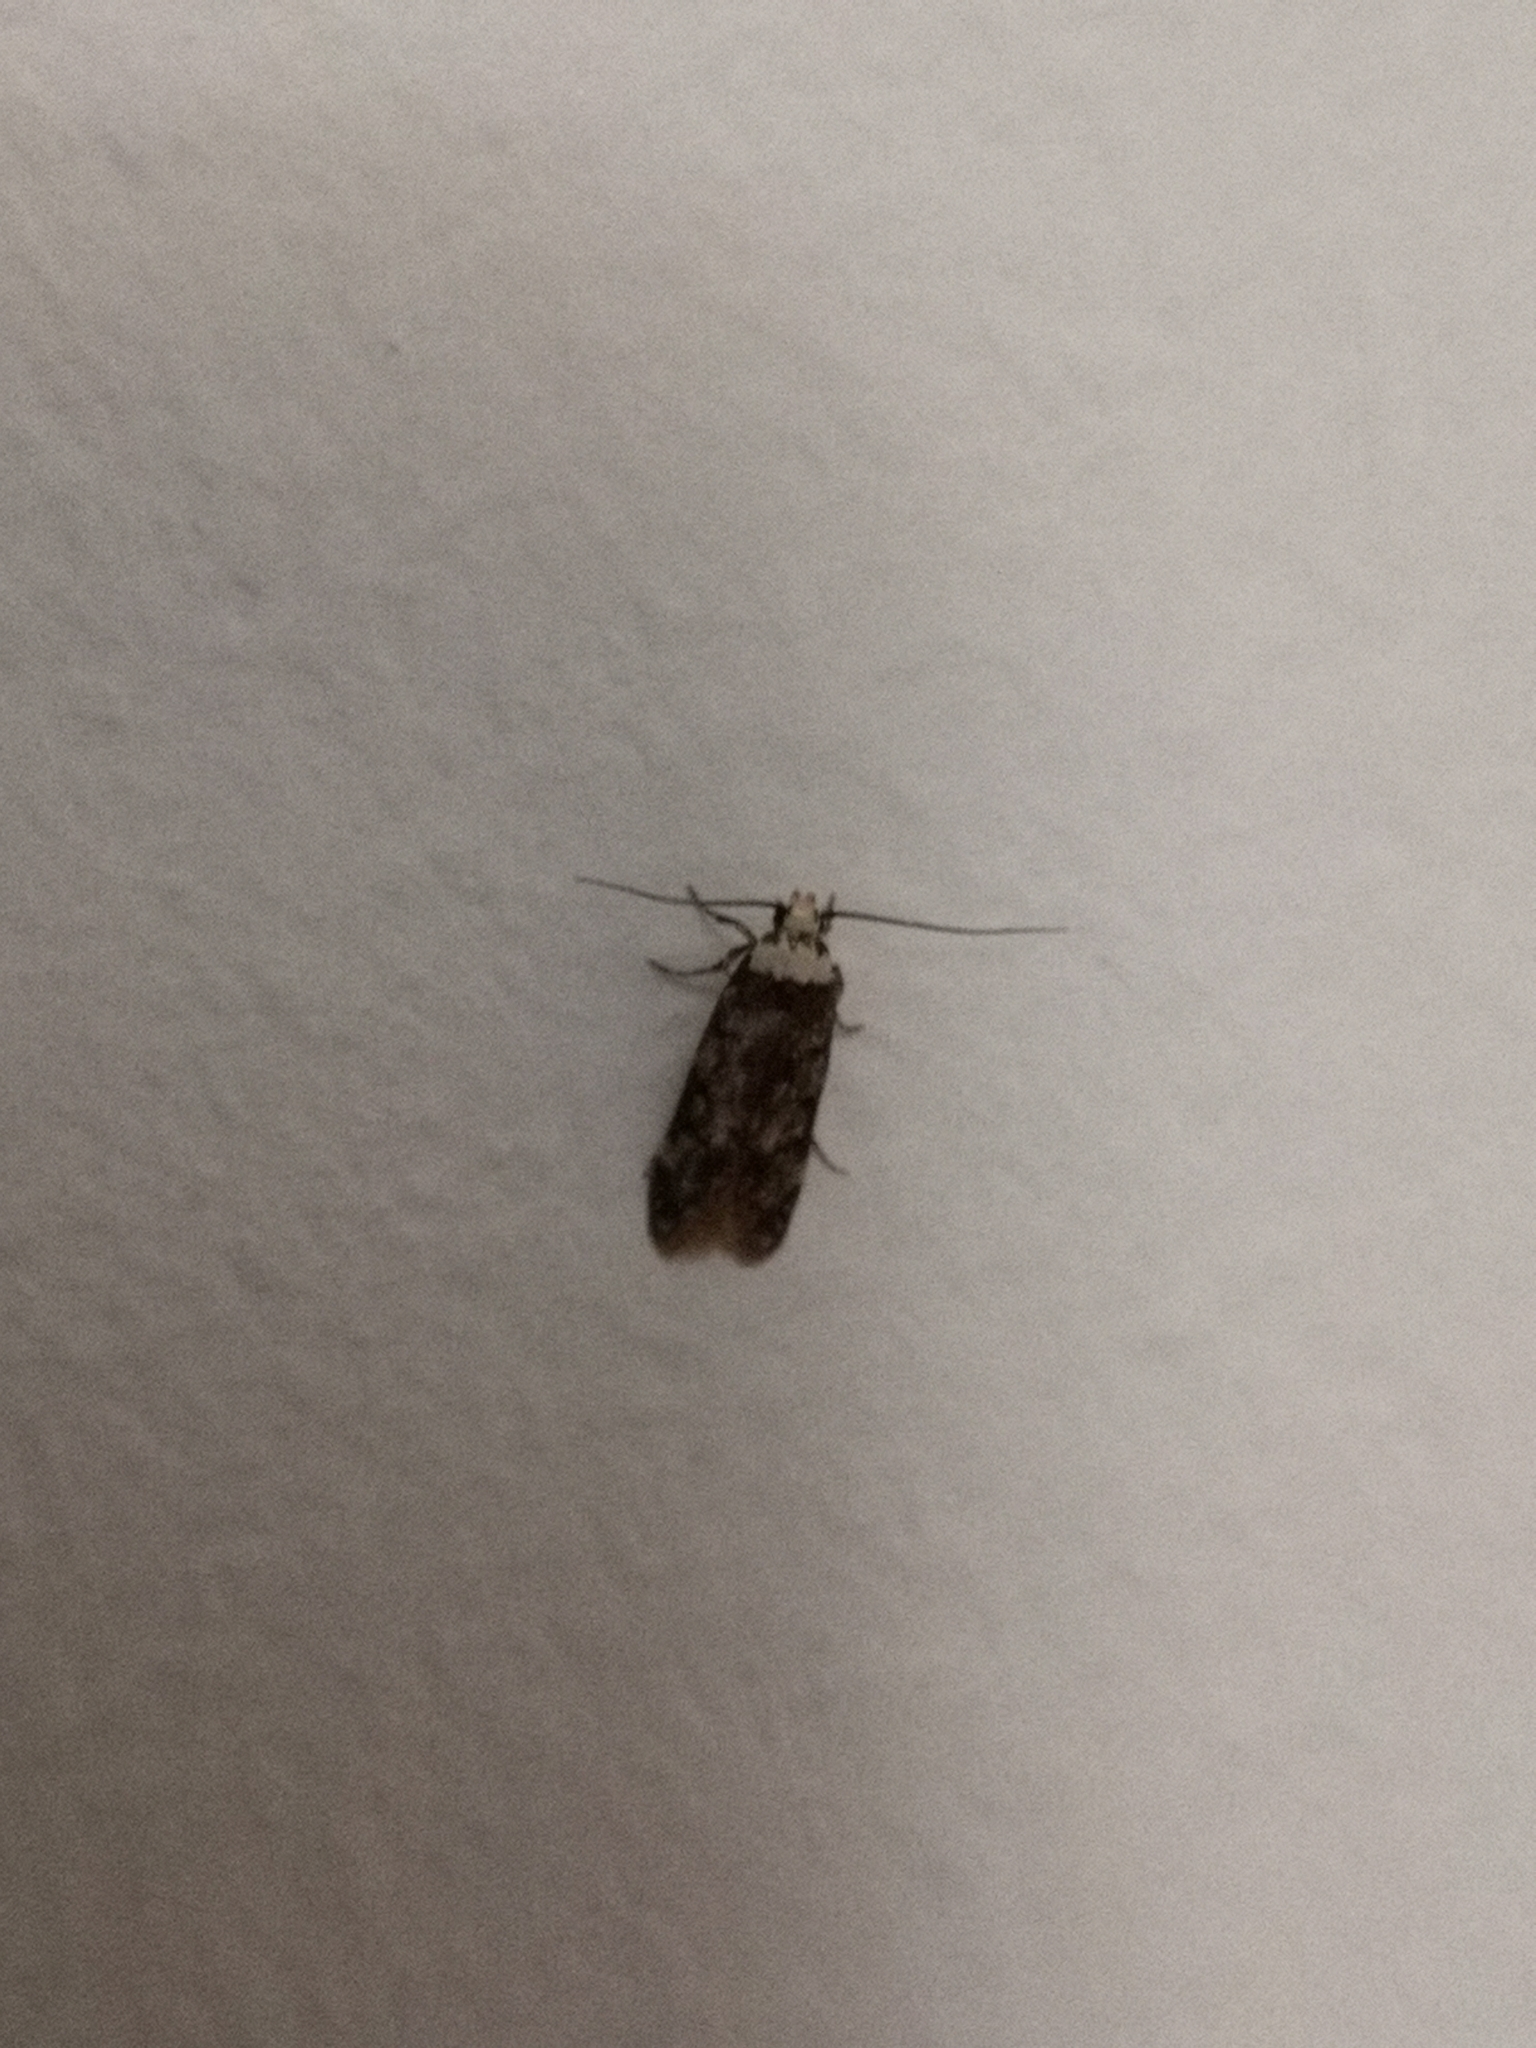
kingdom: Animalia
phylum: Arthropoda
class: Insecta
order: Lepidoptera
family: Oecophoridae
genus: Endrosis
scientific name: Endrosis sarcitrella
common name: White-shouldered house moth
